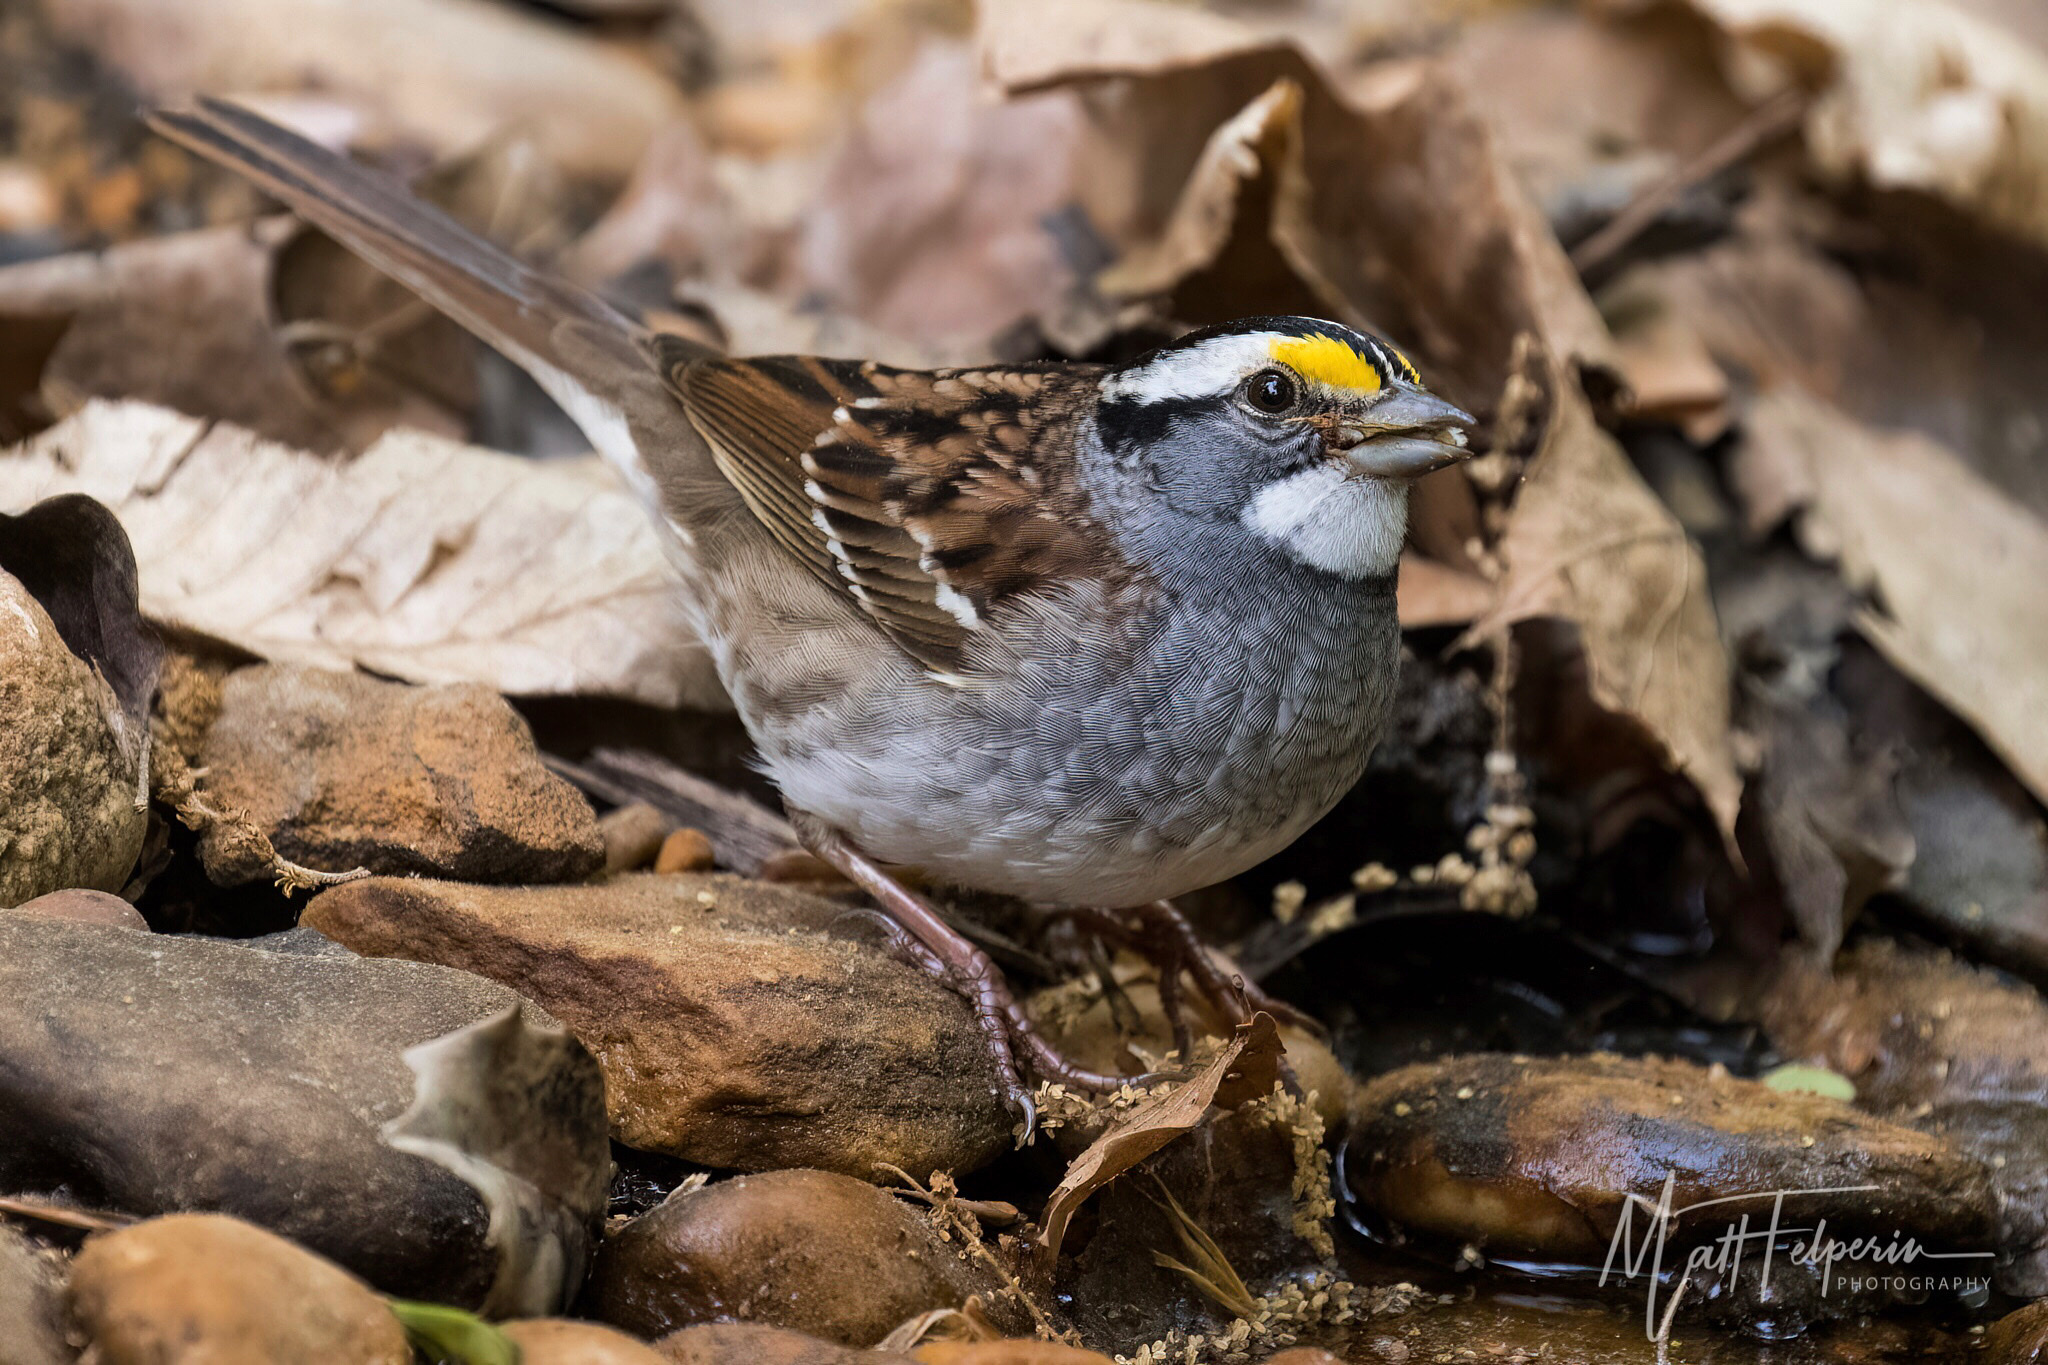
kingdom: Animalia
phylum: Chordata
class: Aves
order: Passeriformes
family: Passerellidae
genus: Zonotrichia
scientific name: Zonotrichia albicollis
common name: White-throated sparrow
